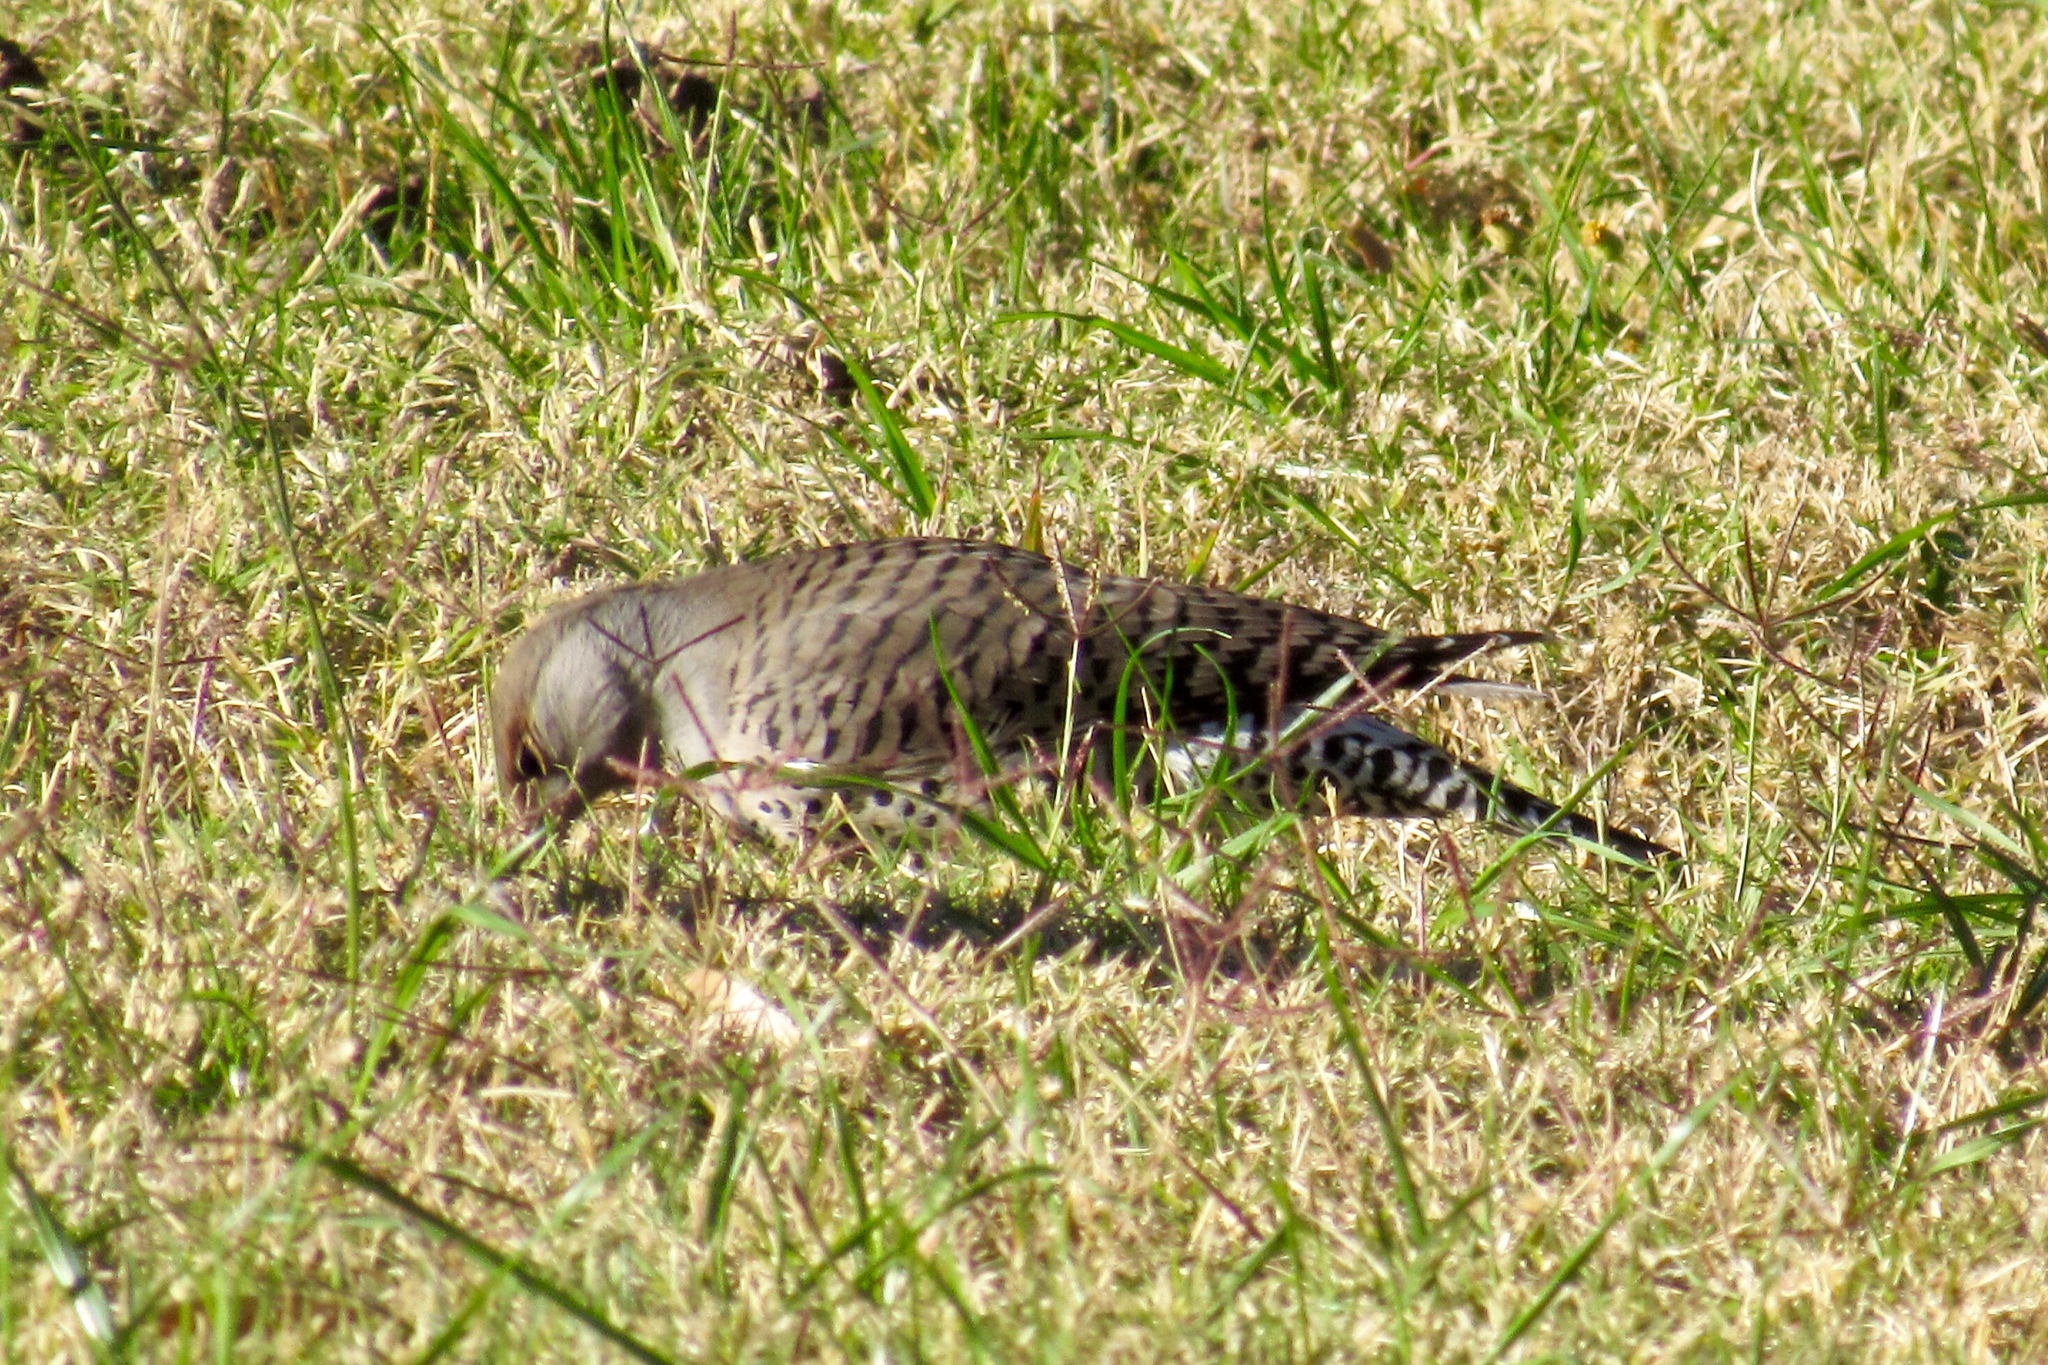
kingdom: Animalia
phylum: Chordata
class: Aves
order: Piciformes
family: Picidae
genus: Colaptes
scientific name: Colaptes auratus
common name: Northern flicker
